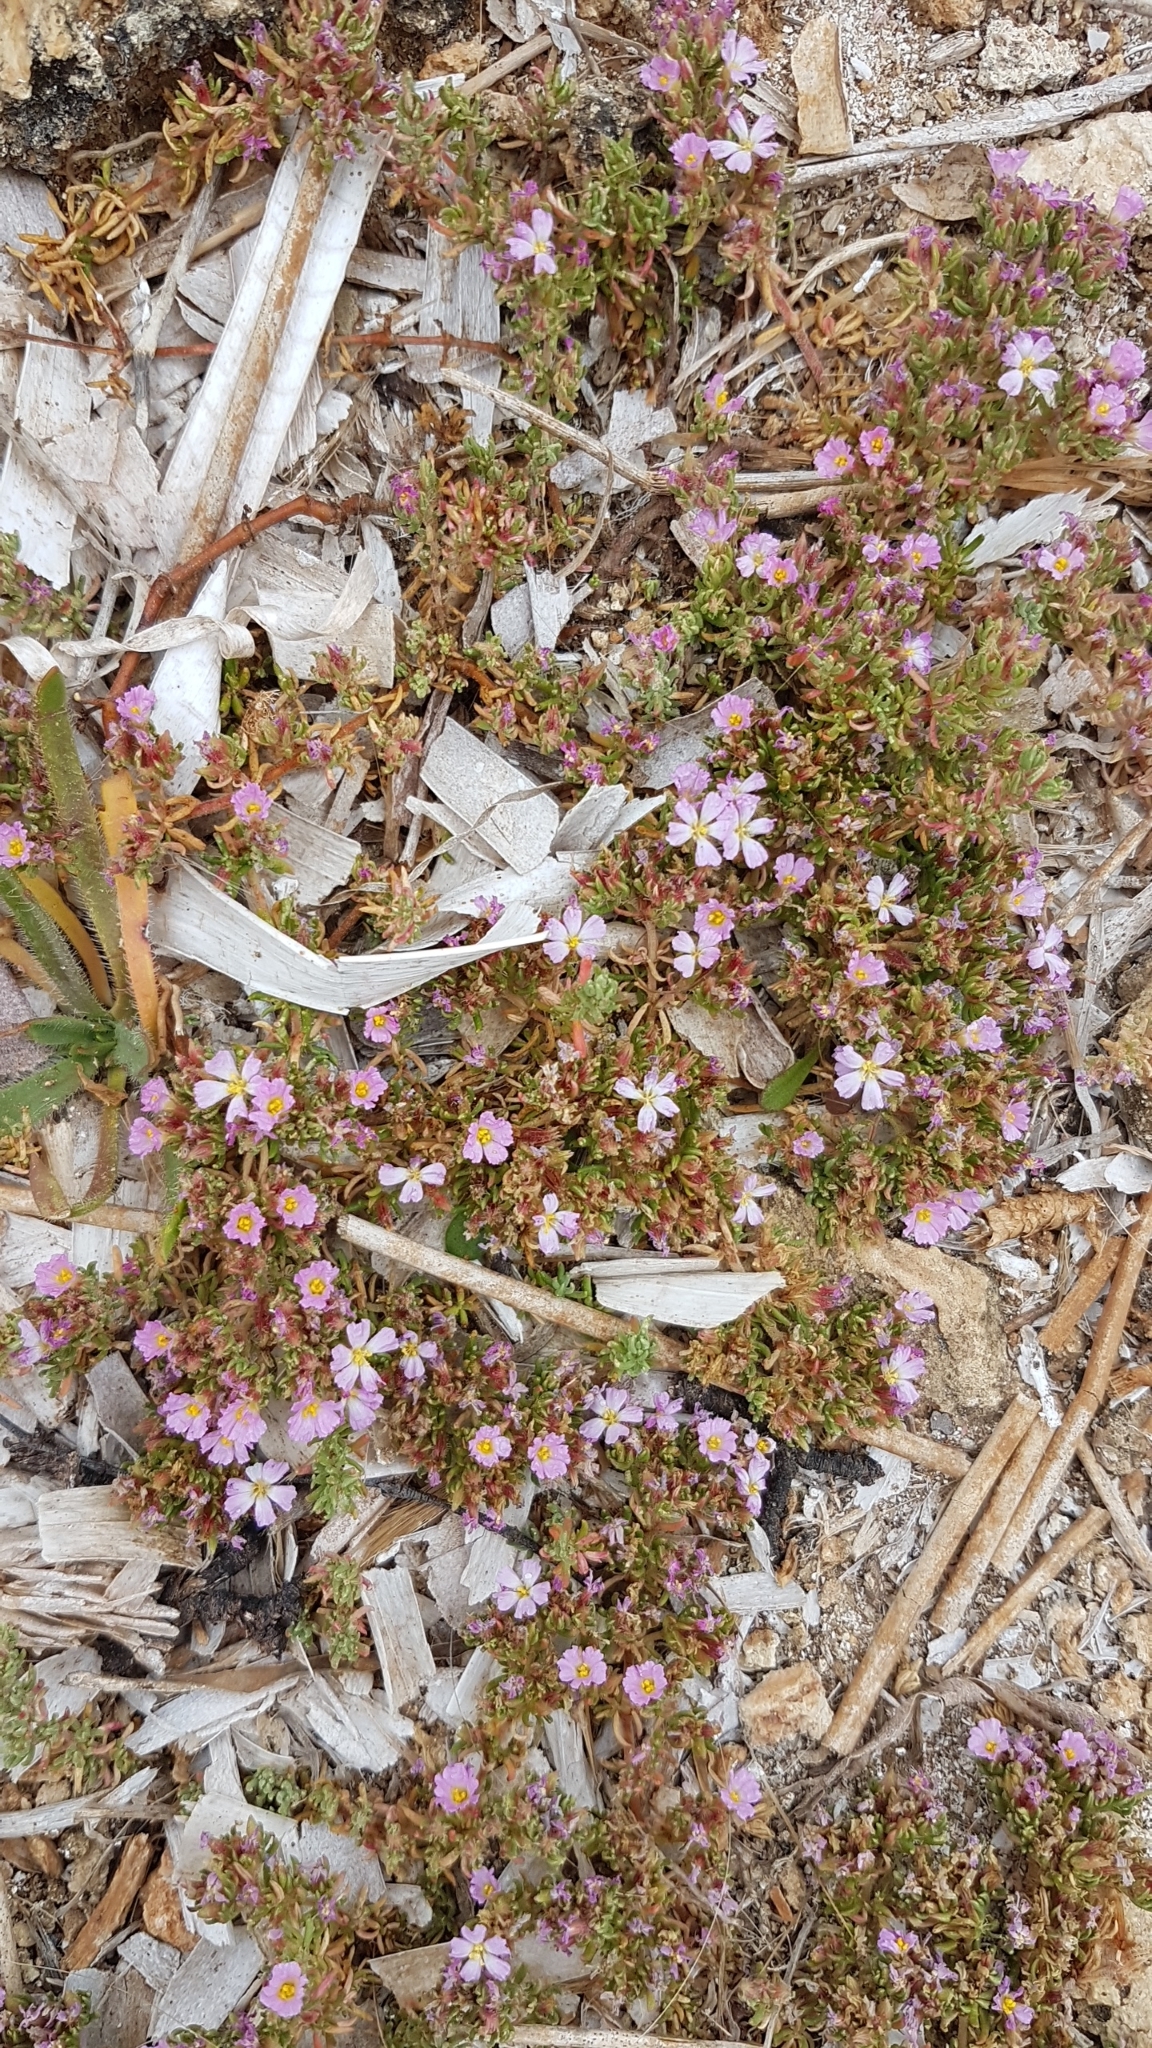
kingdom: Plantae
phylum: Tracheophyta
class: Magnoliopsida
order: Caryophyllales
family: Frankeniaceae
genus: Frankenia
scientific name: Frankenia hirsuta
